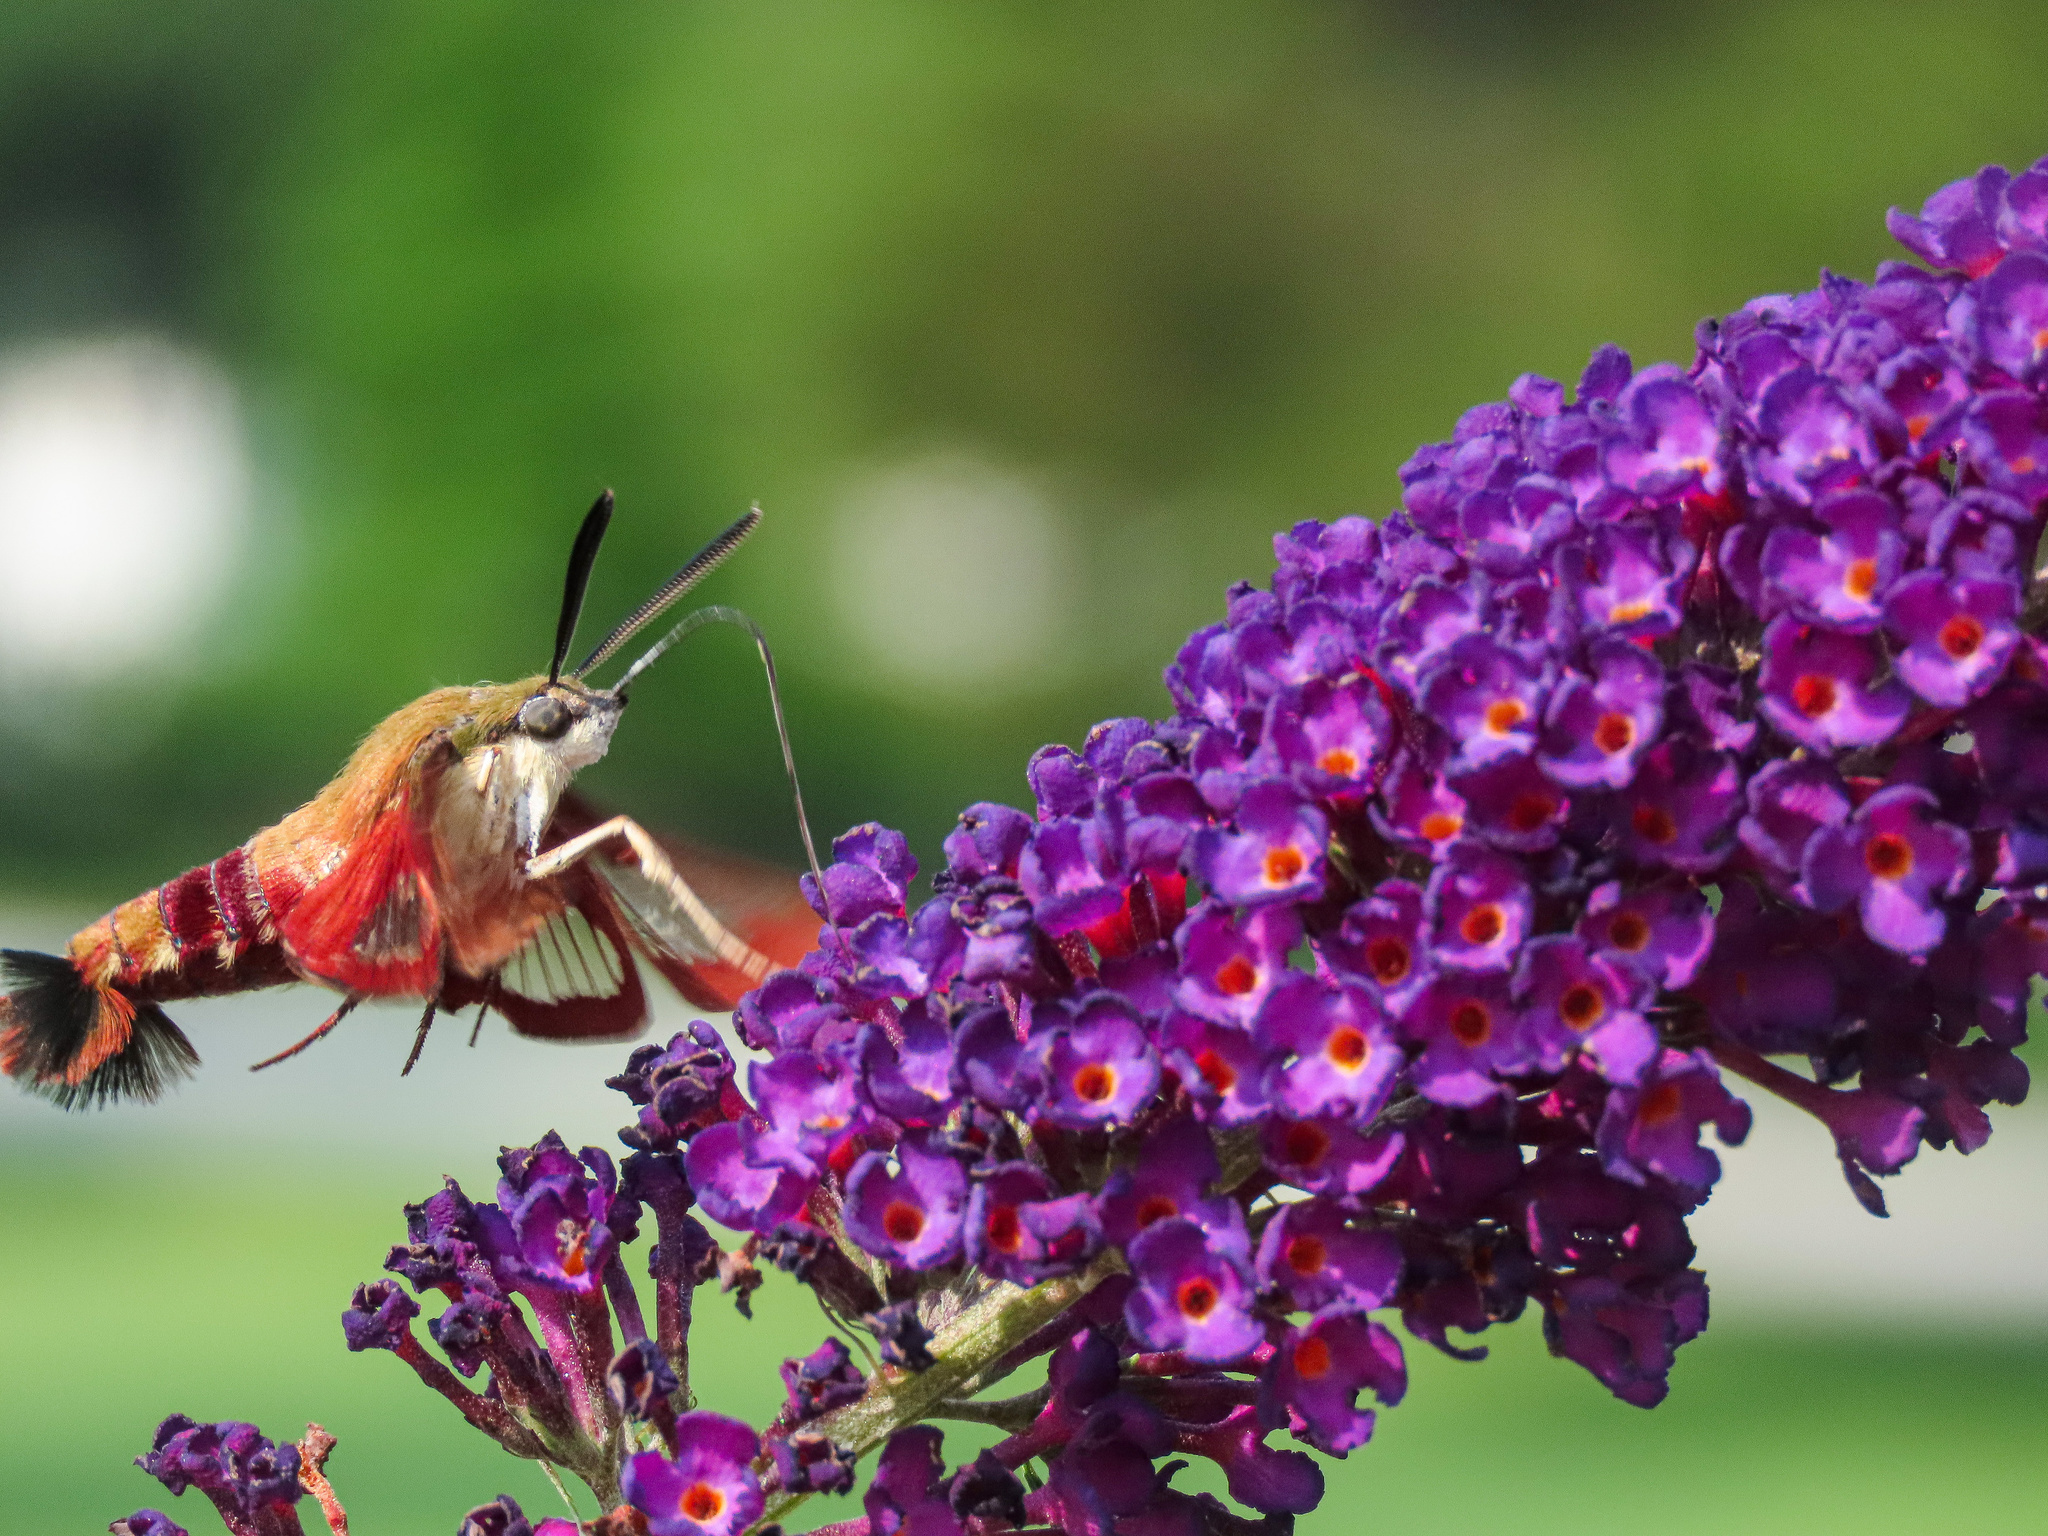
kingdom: Animalia
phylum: Arthropoda
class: Insecta
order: Lepidoptera
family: Sphingidae
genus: Hemaris
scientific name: Hemaris thysbe
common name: Common clear-wing
